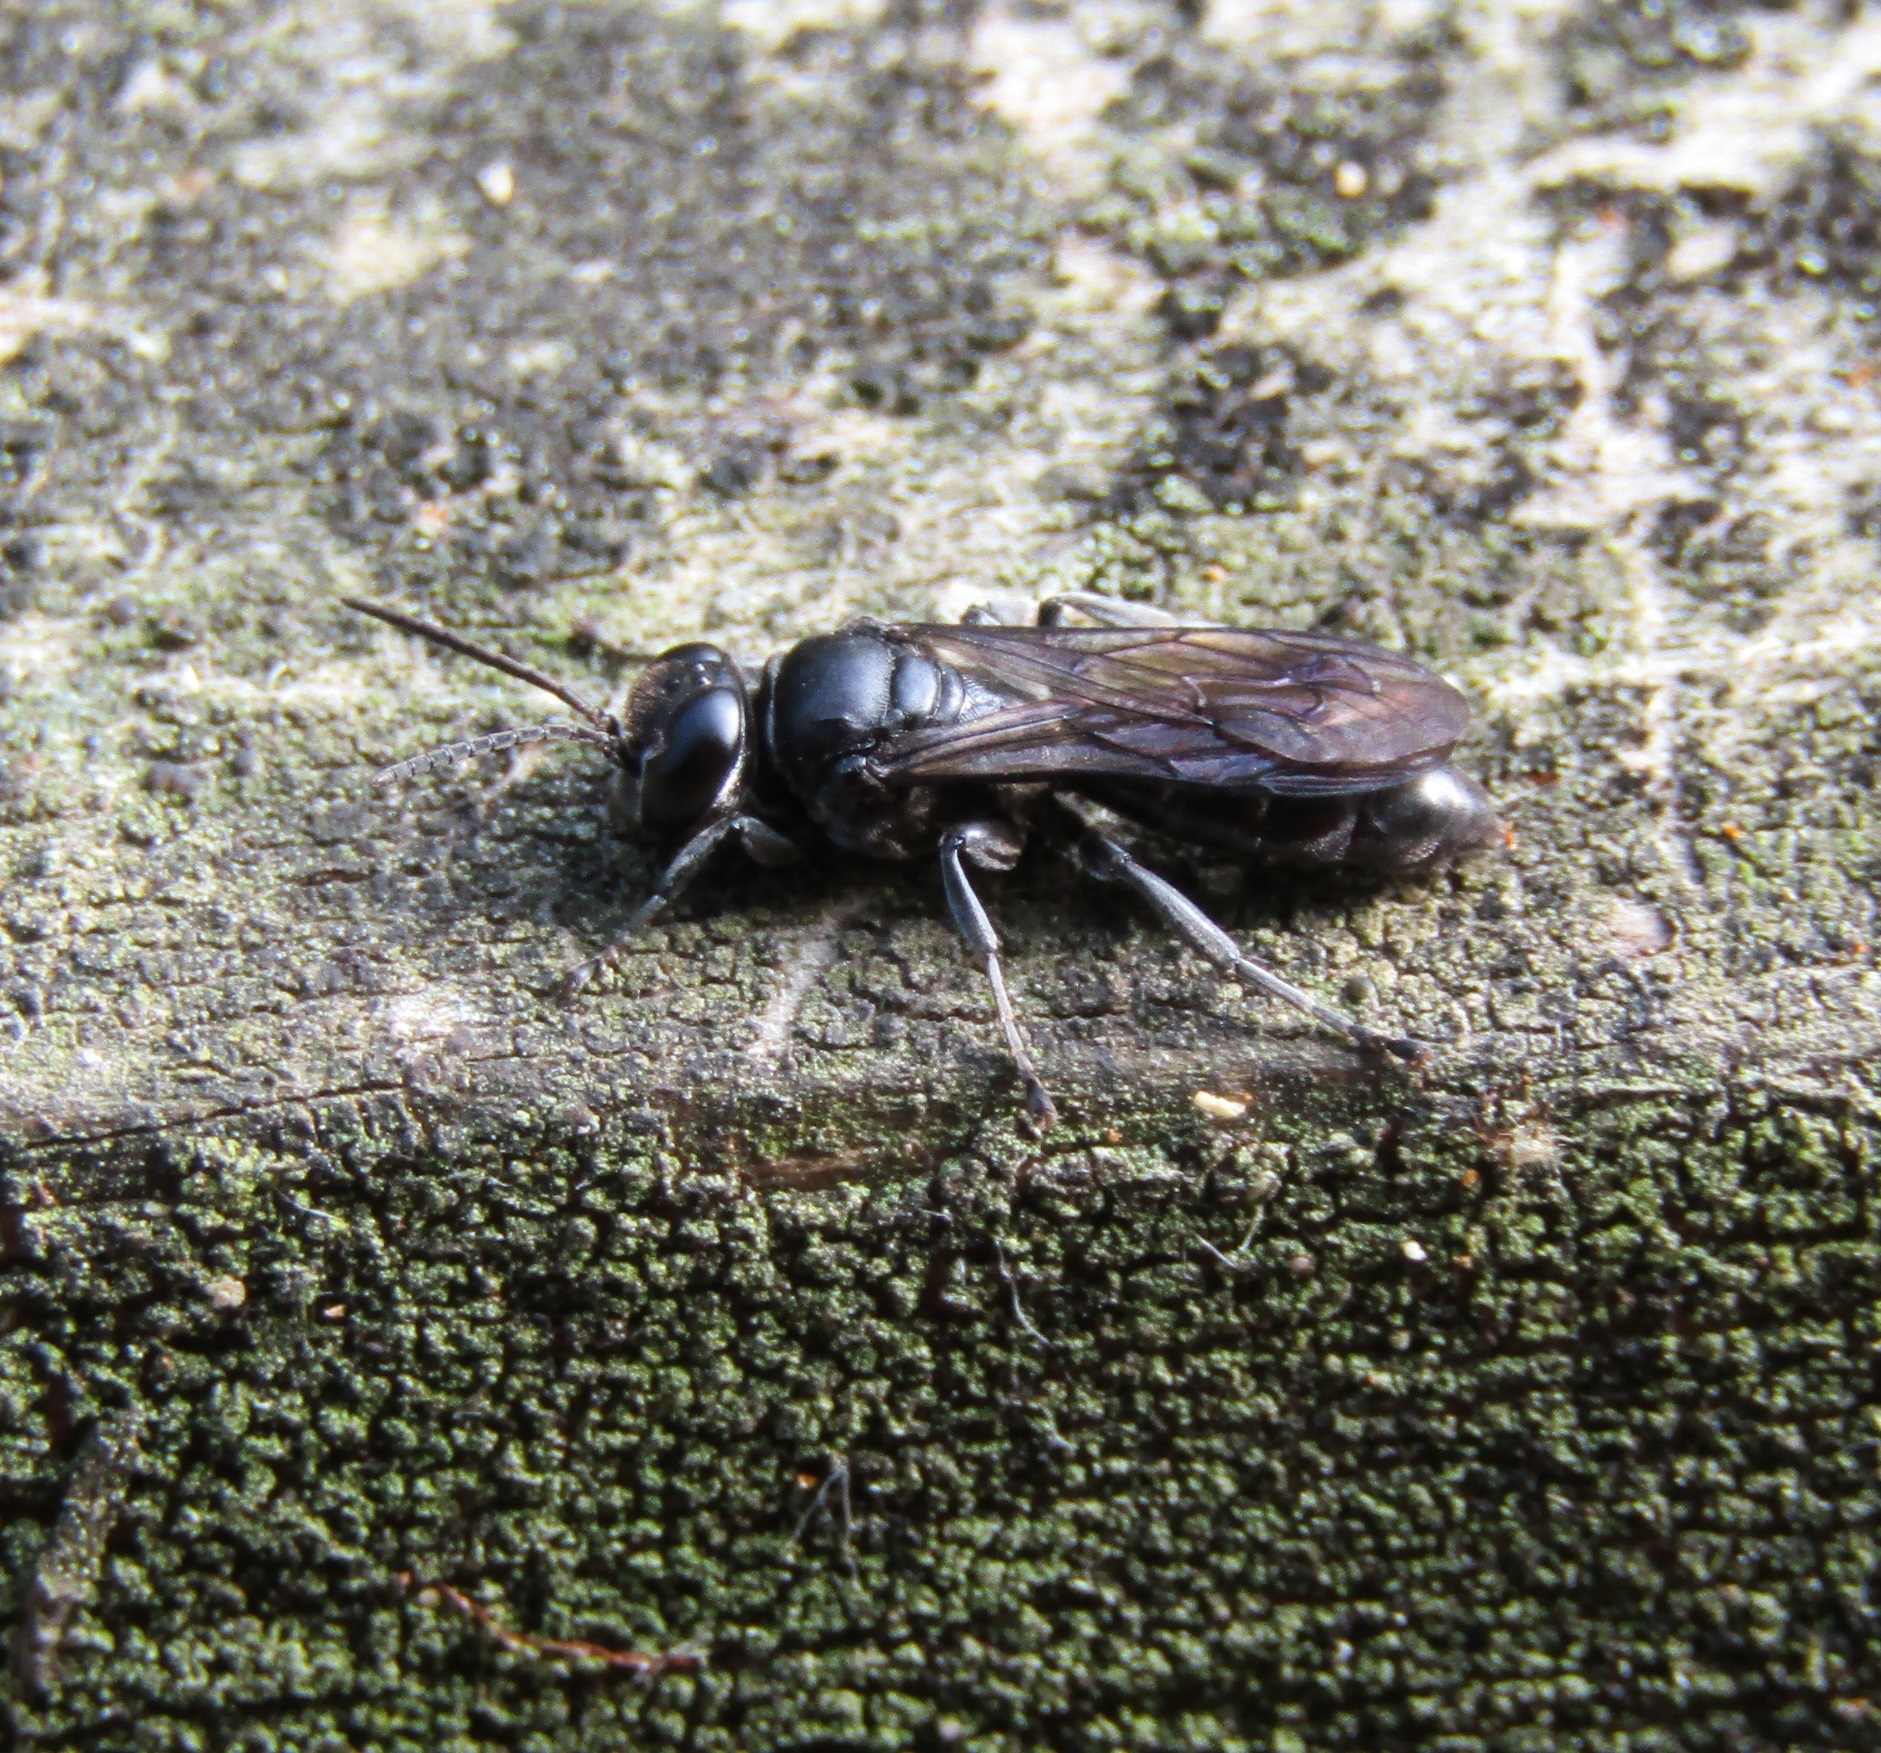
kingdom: Animalia
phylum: Arthropoda
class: Insecta
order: Hymenoptera
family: Crabronidae
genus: Pison
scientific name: Pison spinolae
